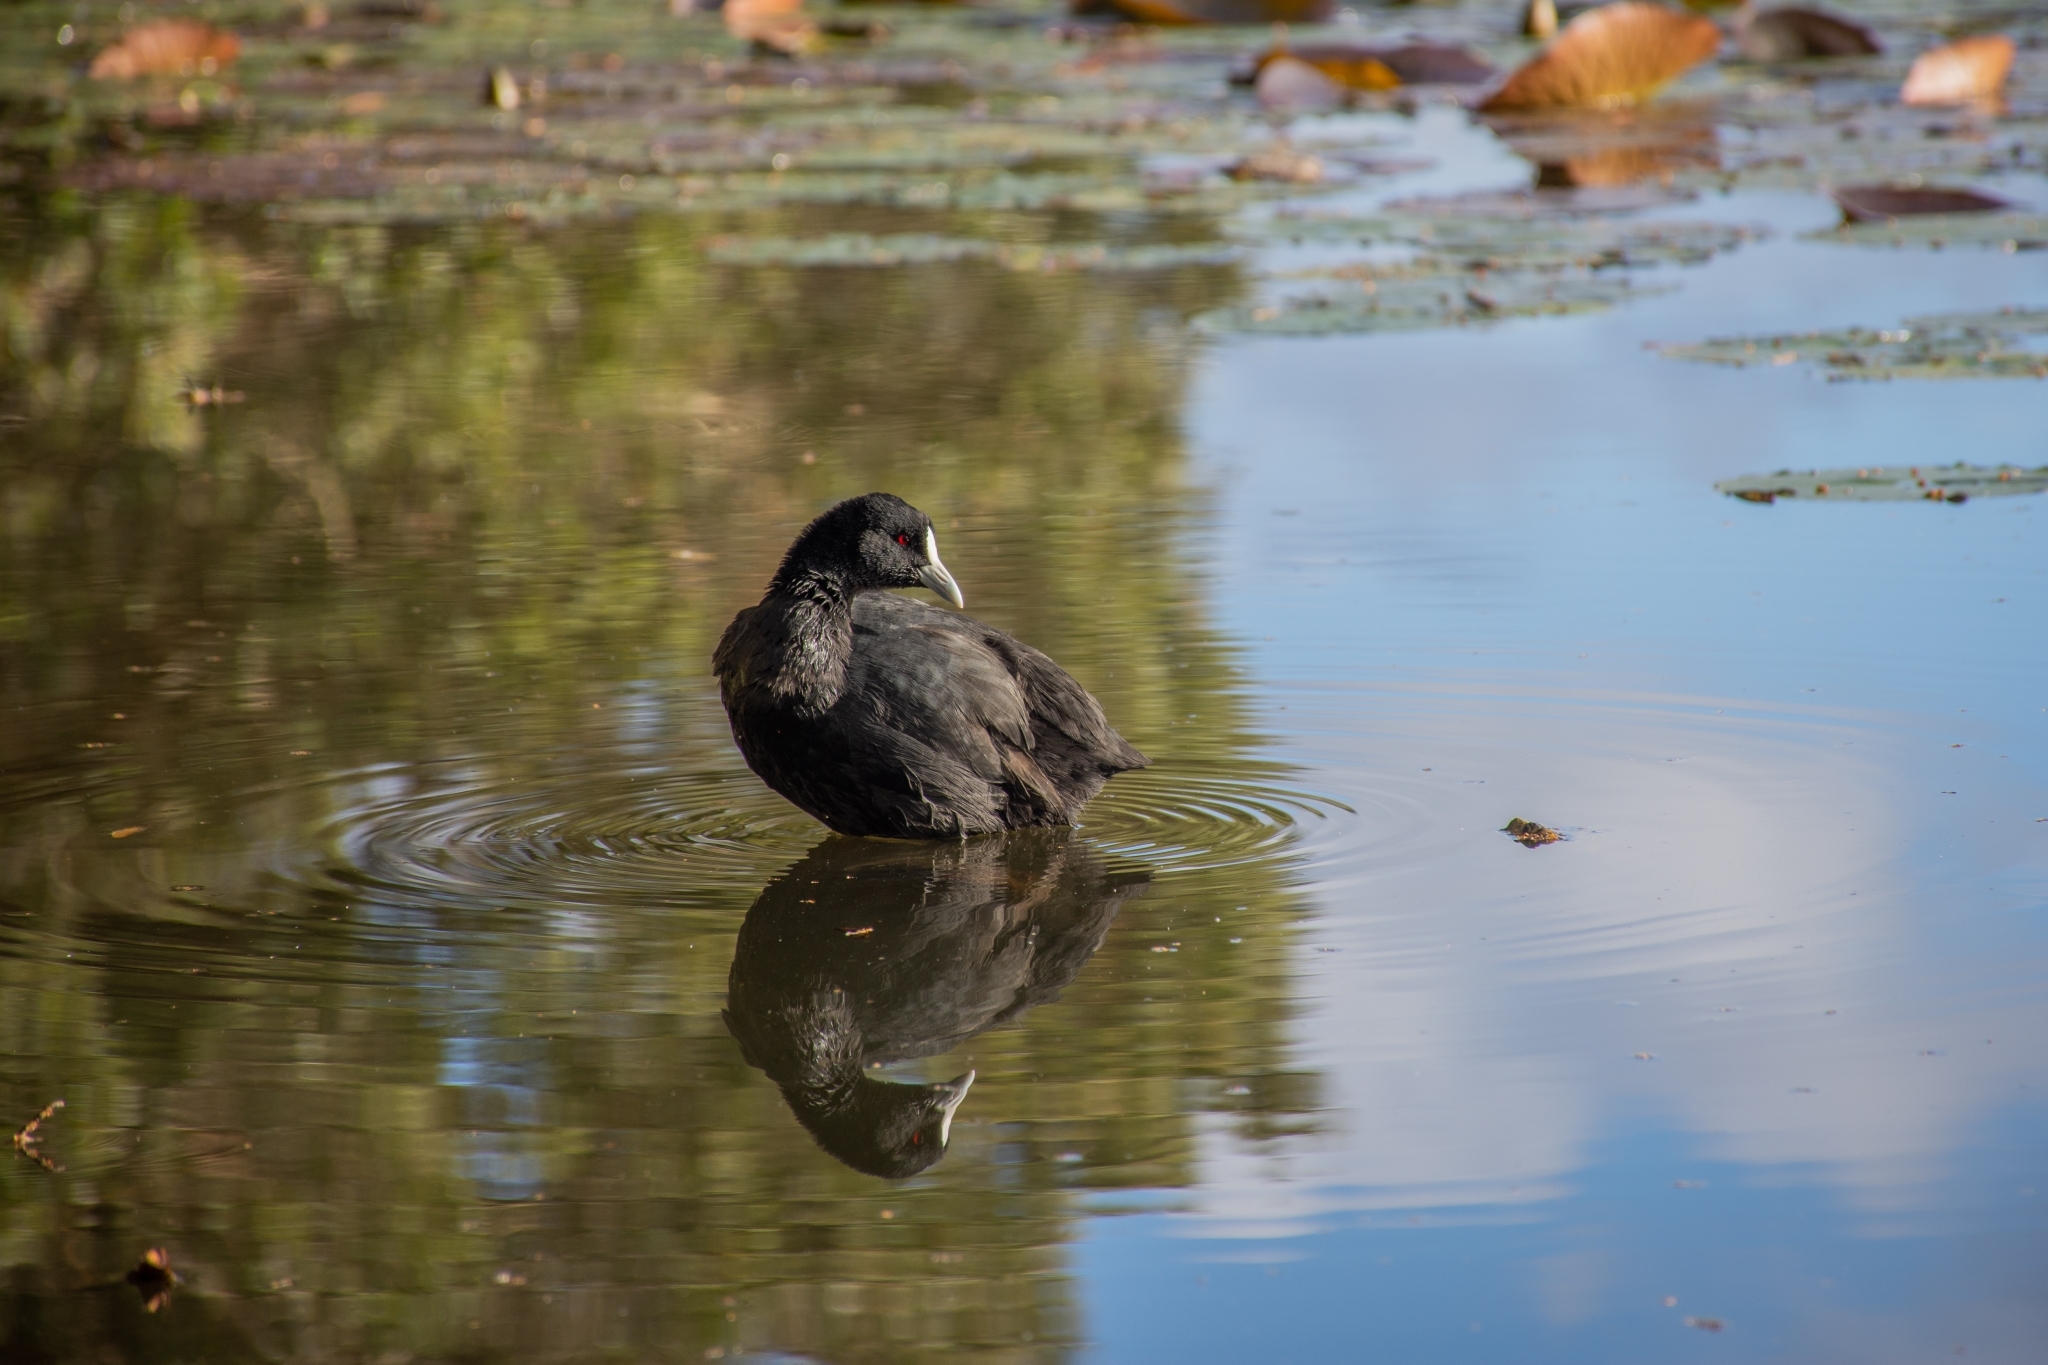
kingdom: Animalia
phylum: Chordata
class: Aves
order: Gruiformes
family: Rallidae
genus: Fulica
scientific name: Fulica atra
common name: Eurasian coot
